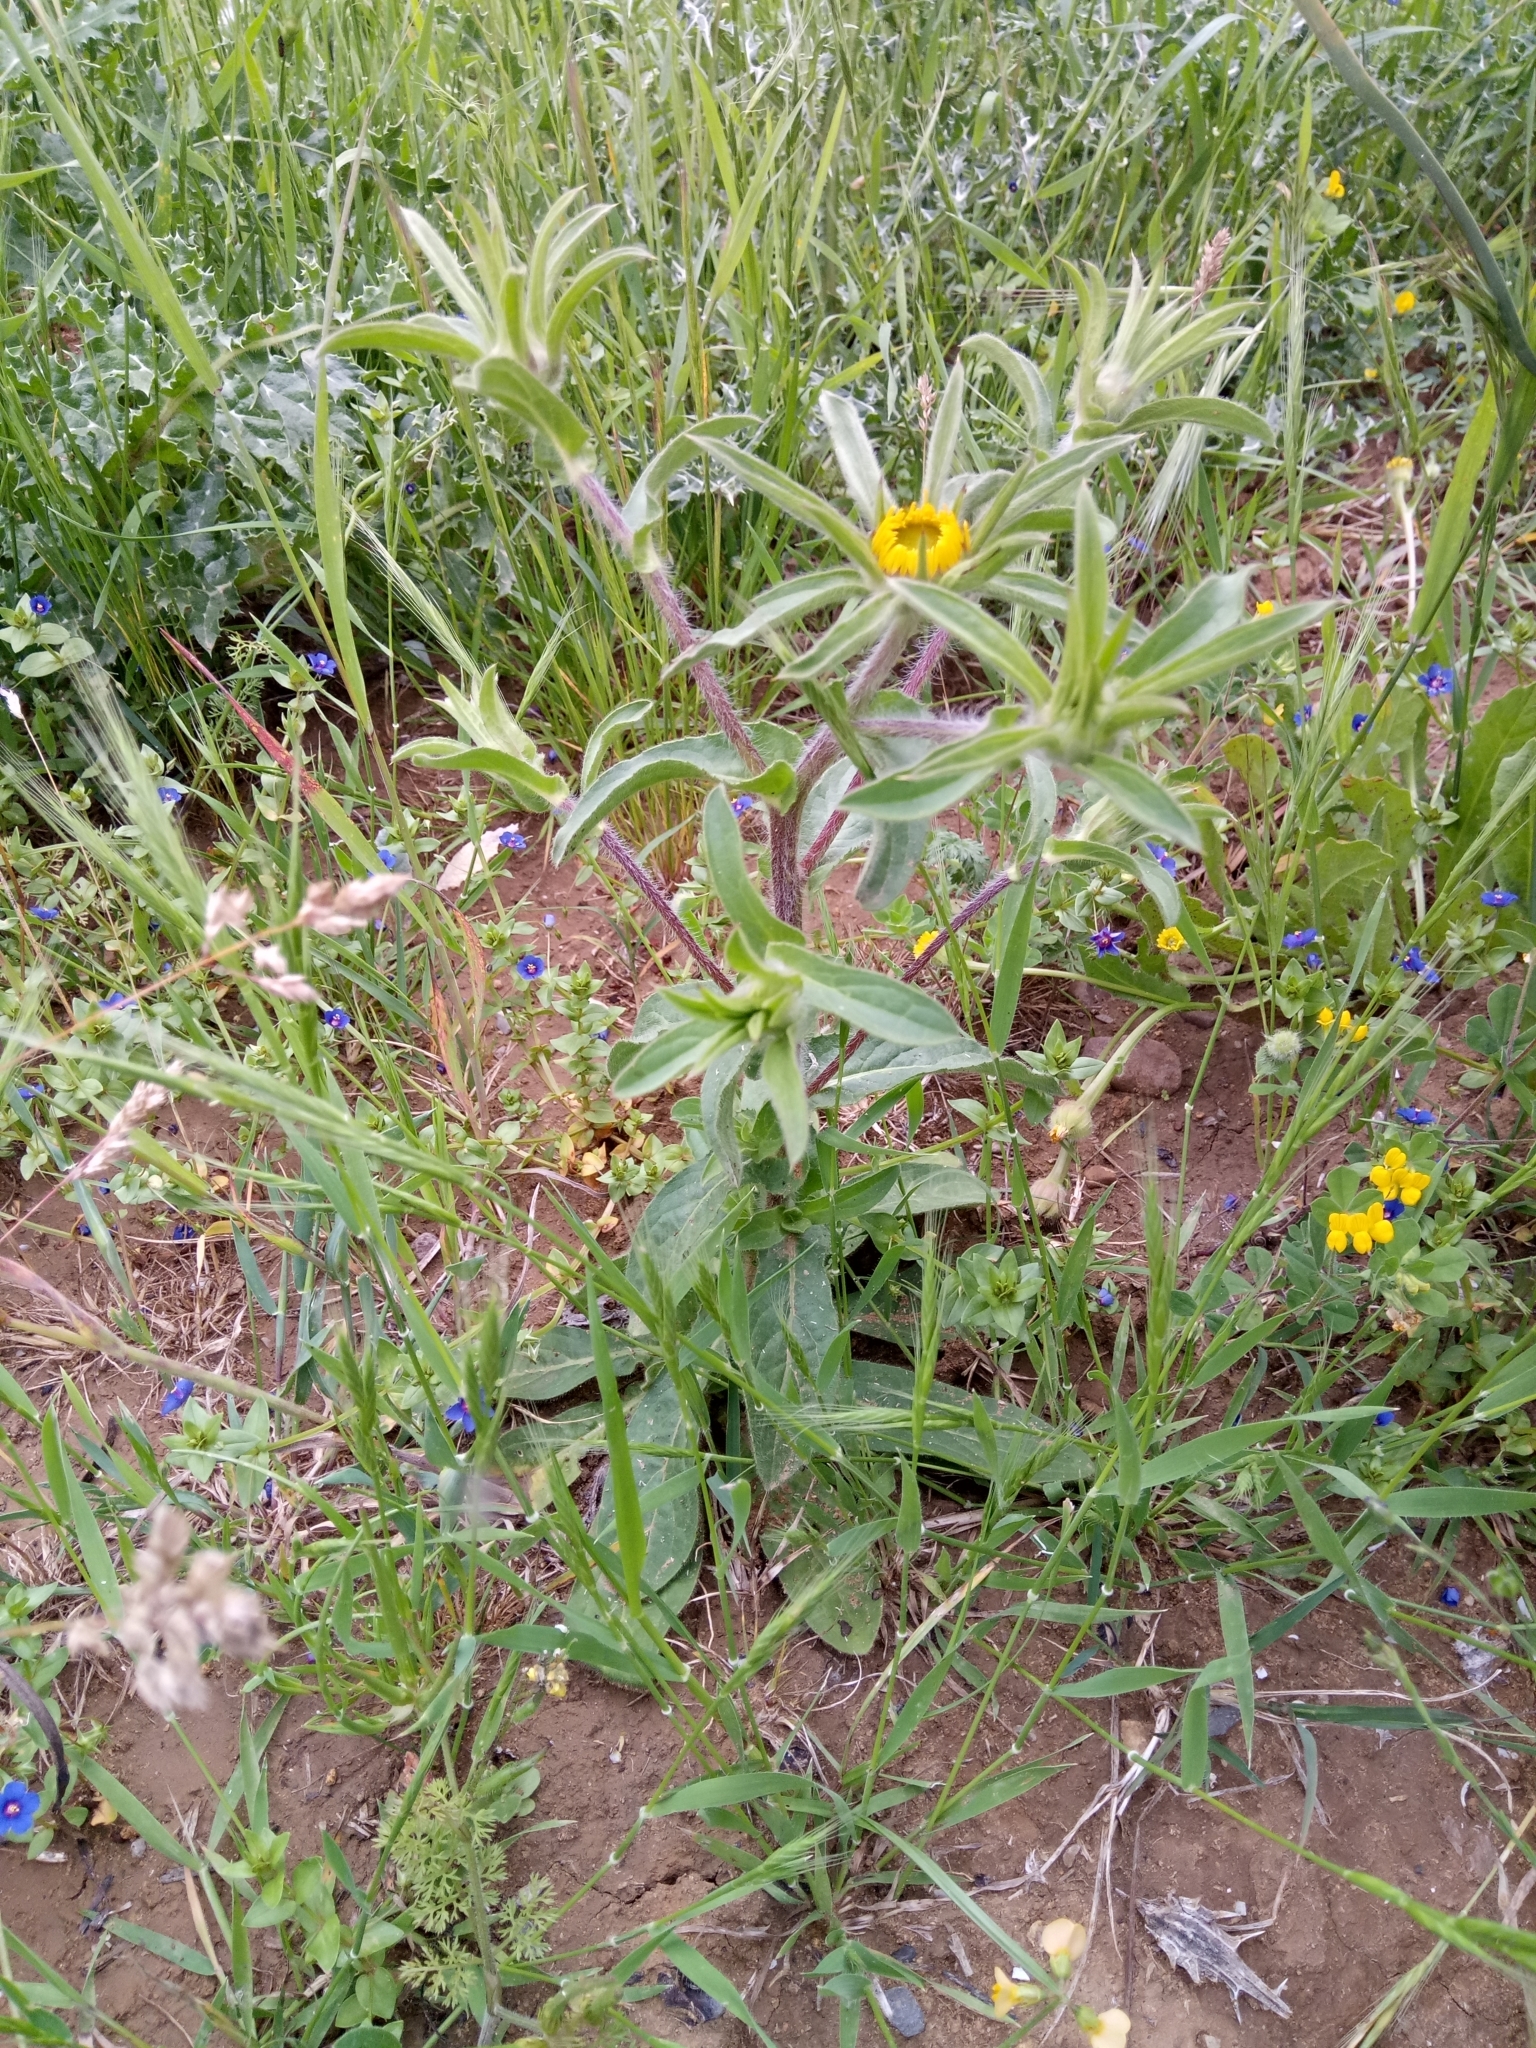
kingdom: Plantae
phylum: Tracheophyta
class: Magnoliopsida
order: Asterales
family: Asteraceae
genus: Pallenis
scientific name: Pallenis spinosa
